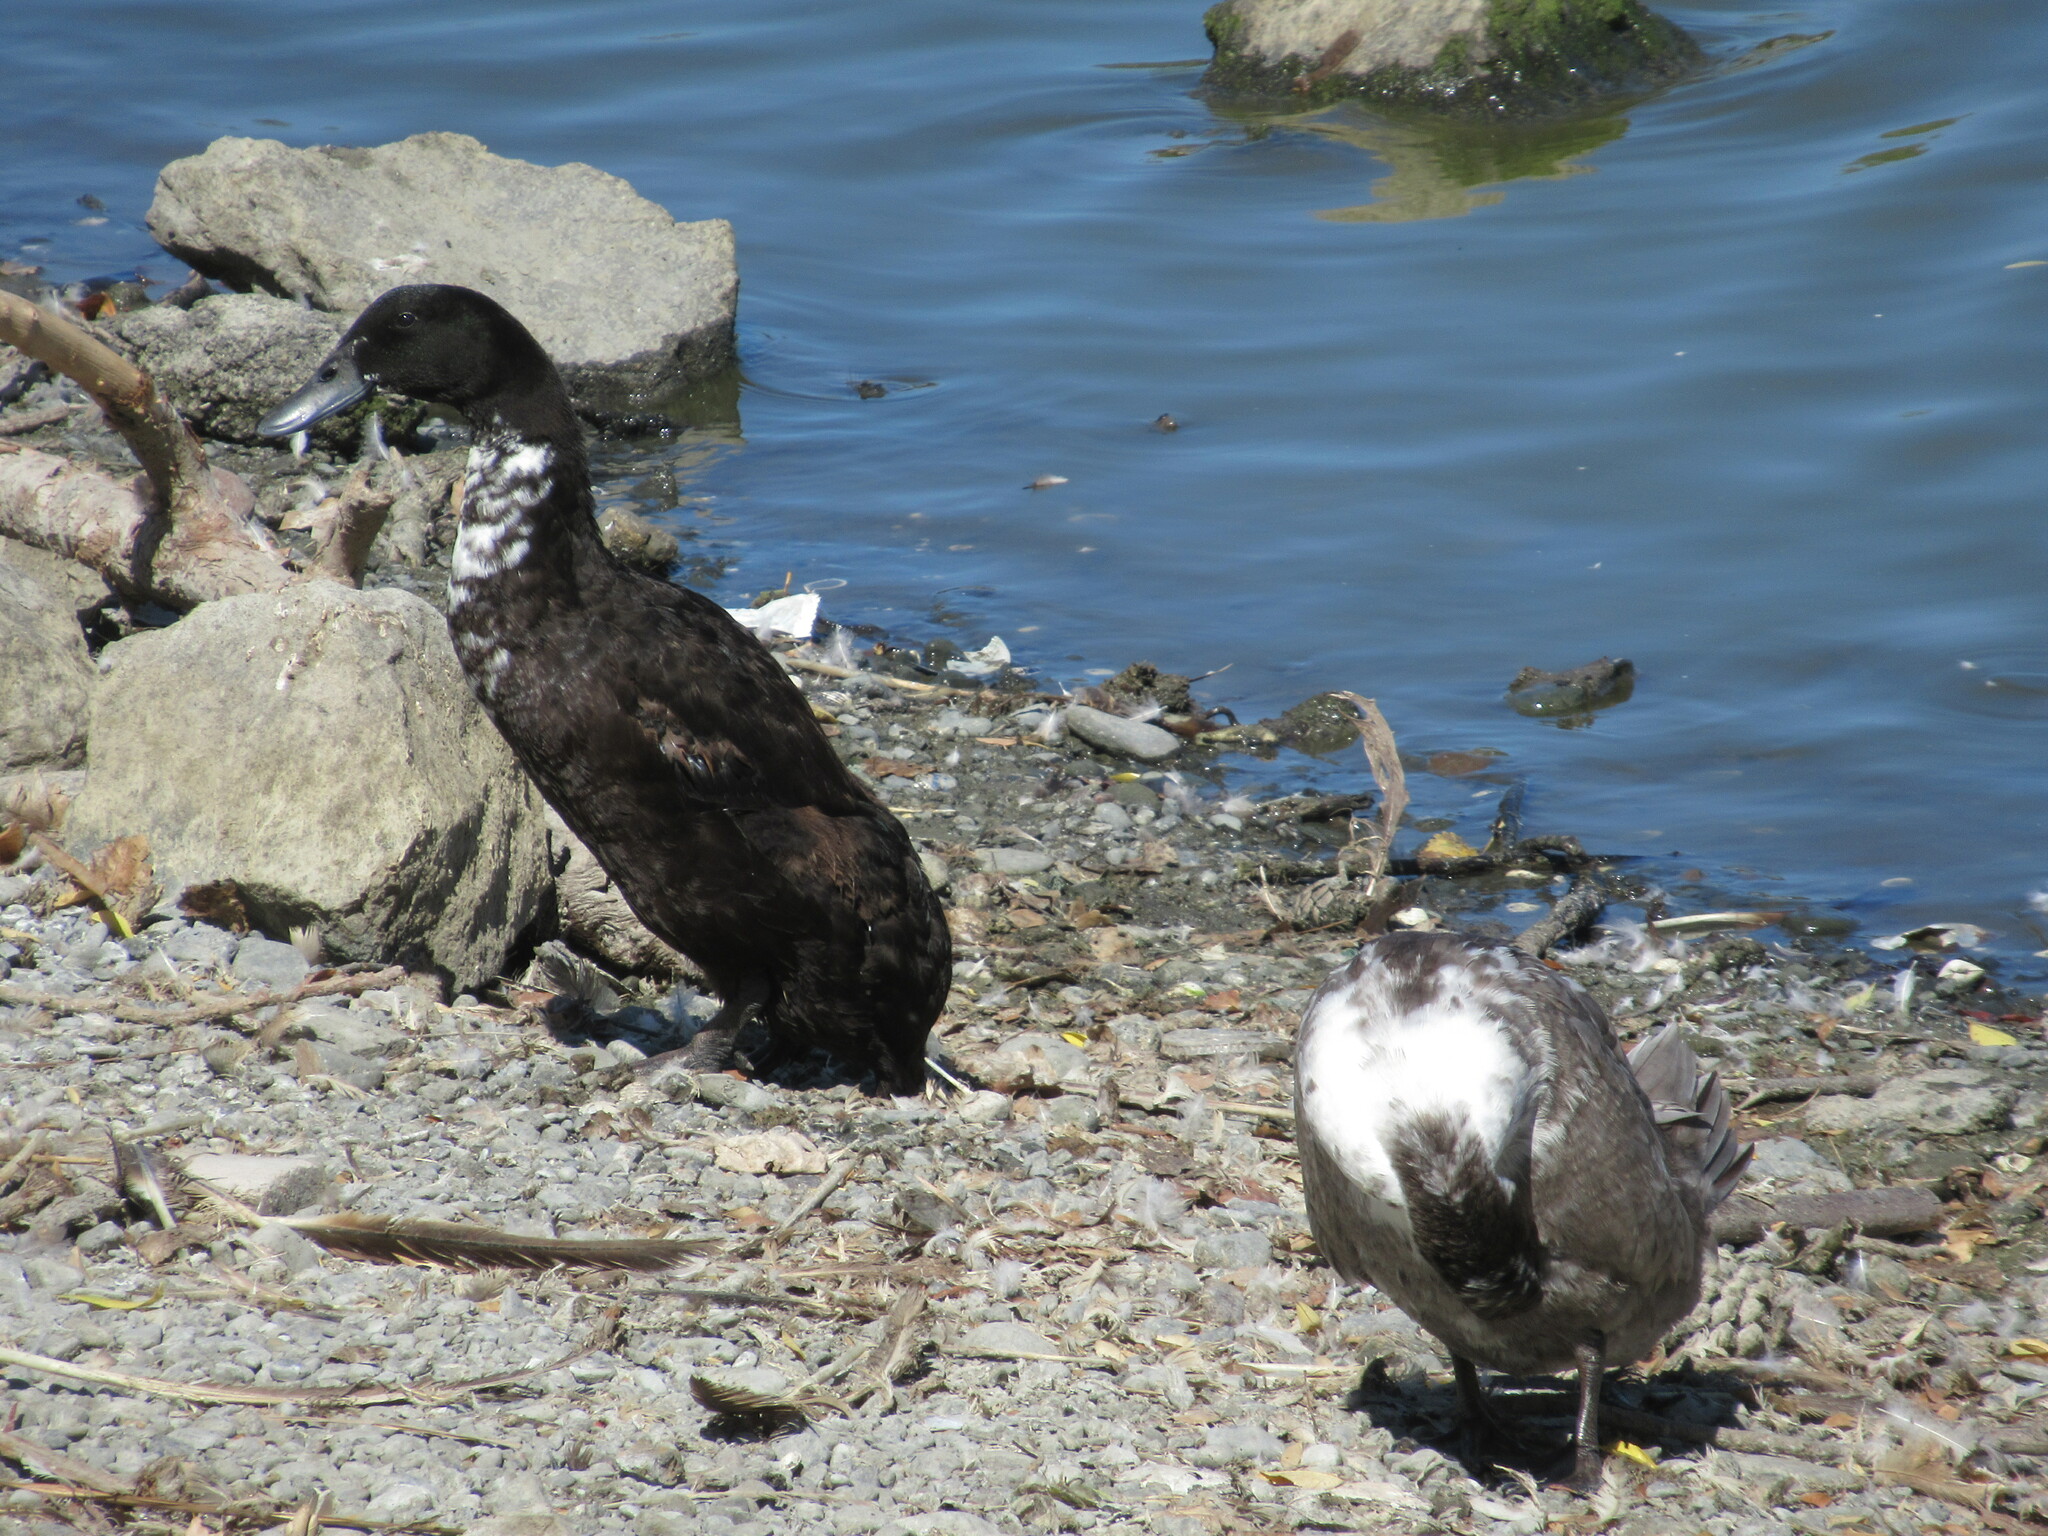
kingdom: Animalia
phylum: Chordata
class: Aves
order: Anseriformes
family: Anatidae
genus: Anas
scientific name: Anas platyrhynchos
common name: Mallard
